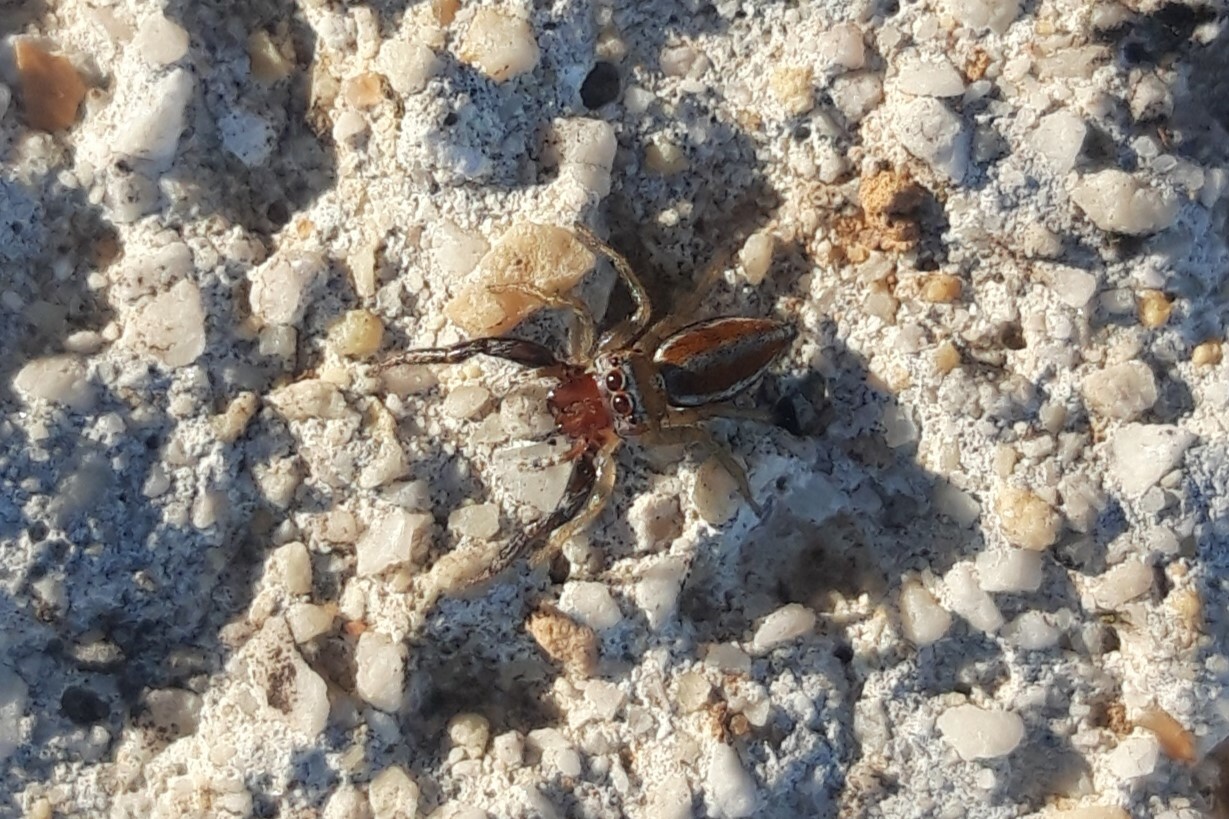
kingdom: Animalia
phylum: Arthropoda
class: Arachnida
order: Araneae
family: Salticidae
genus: Icius
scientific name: Icius hamatus
